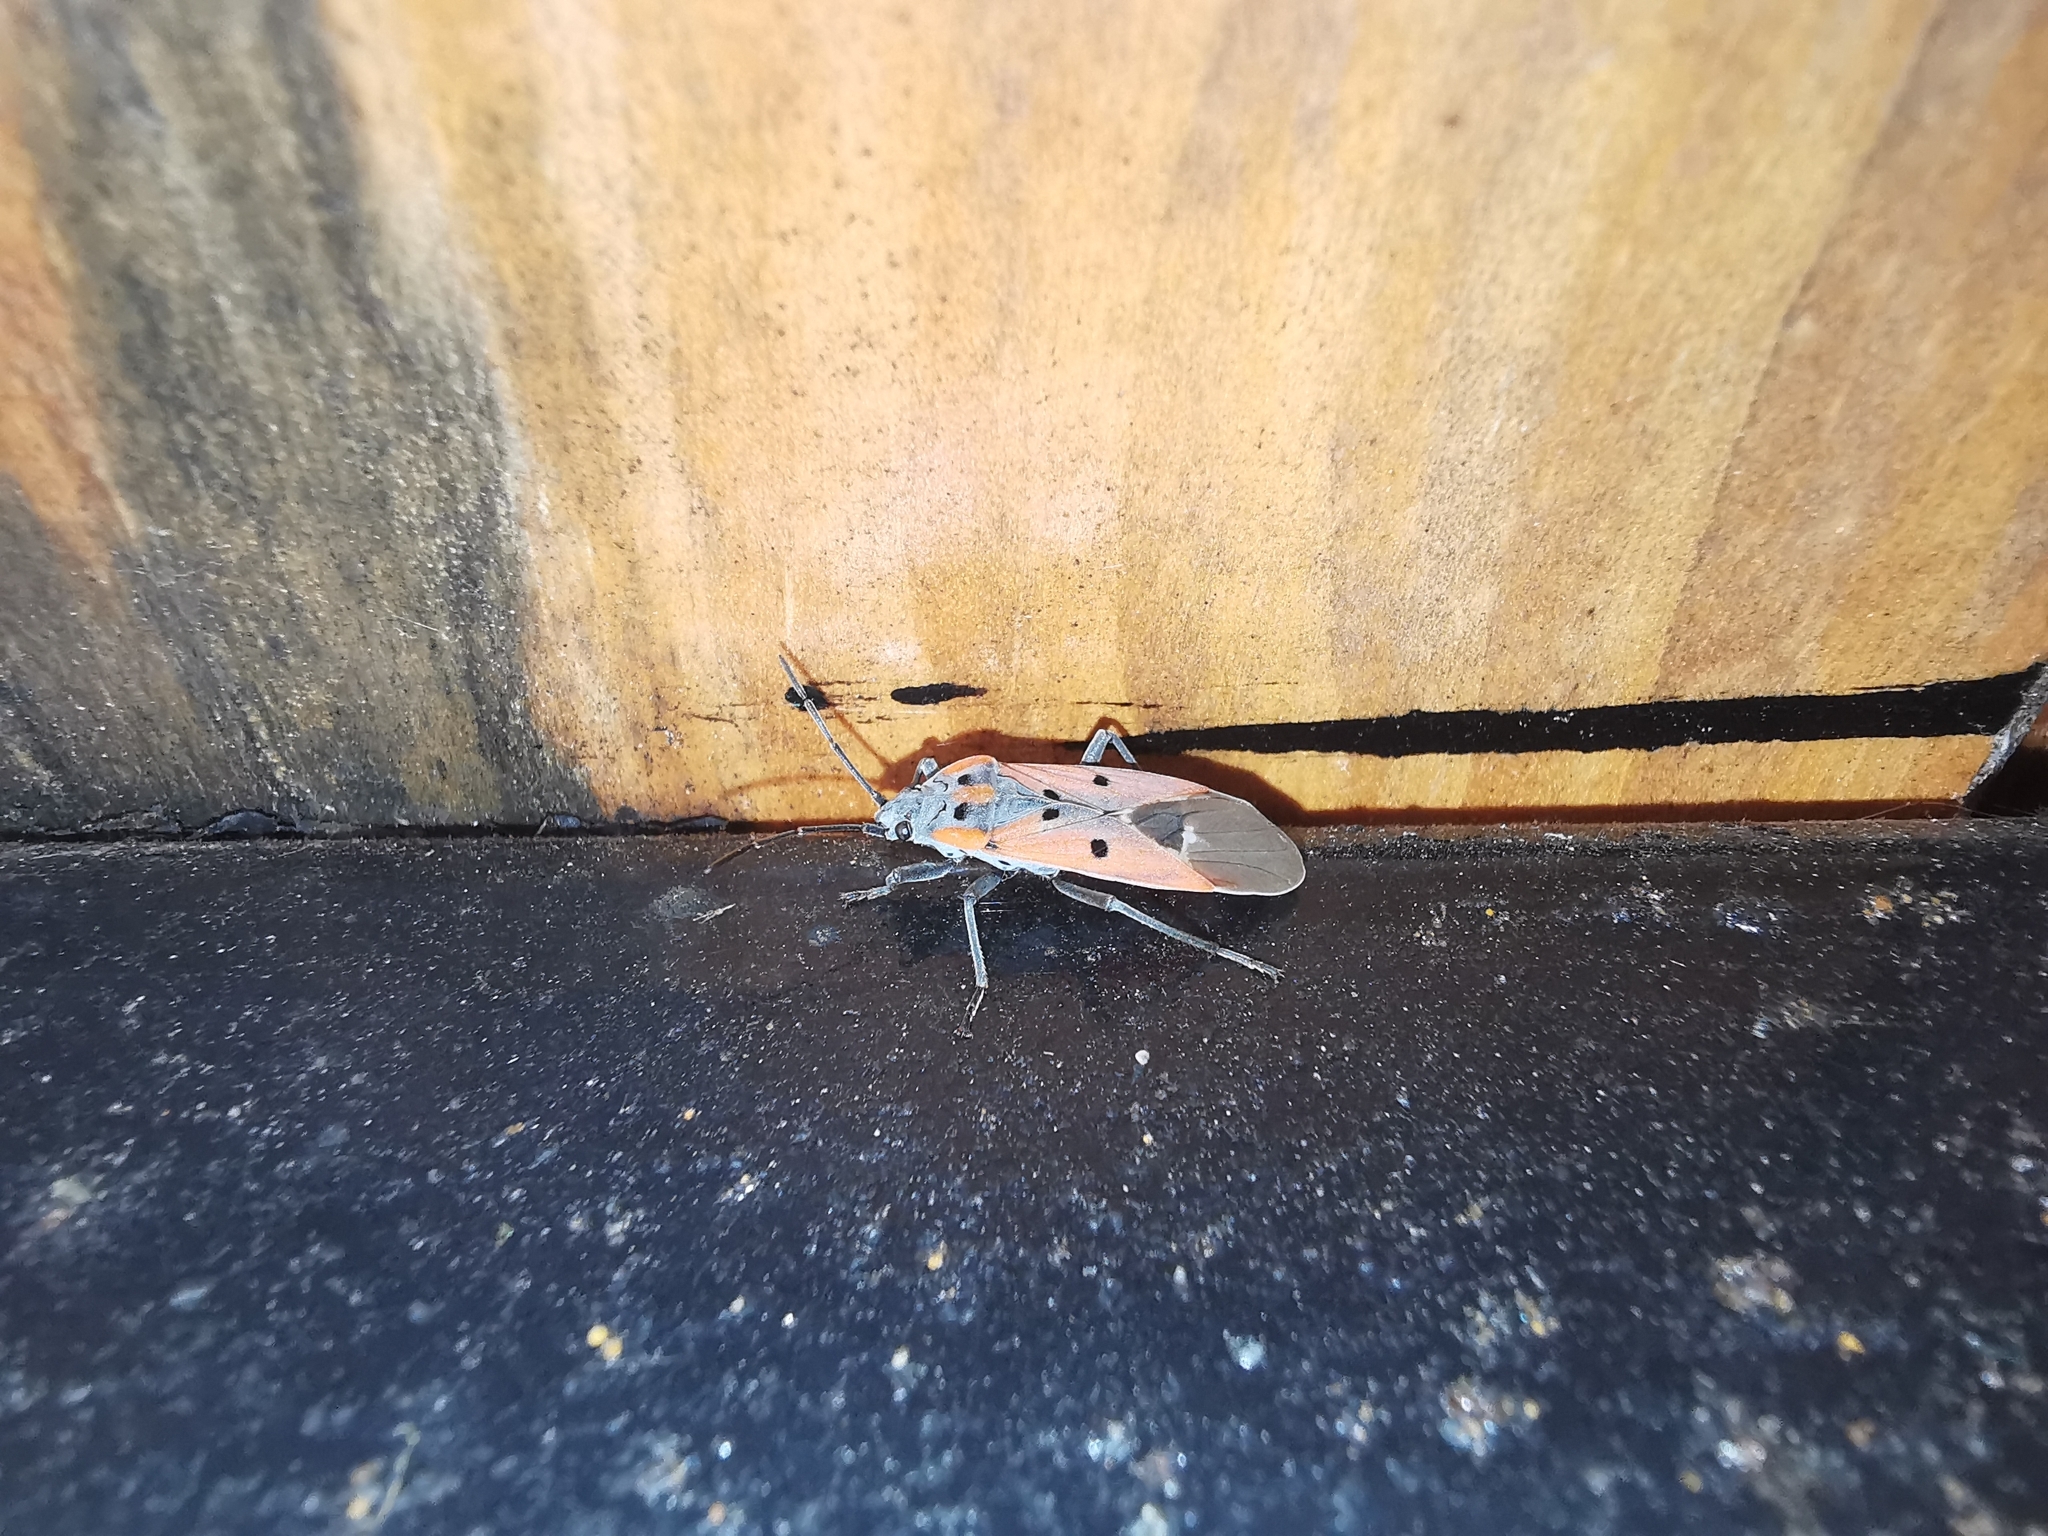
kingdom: Animalia
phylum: Arthropoda
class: Insecta
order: Hemiptera
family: Lygaeidae
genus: Lygaeus
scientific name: Lygaeus creticus
